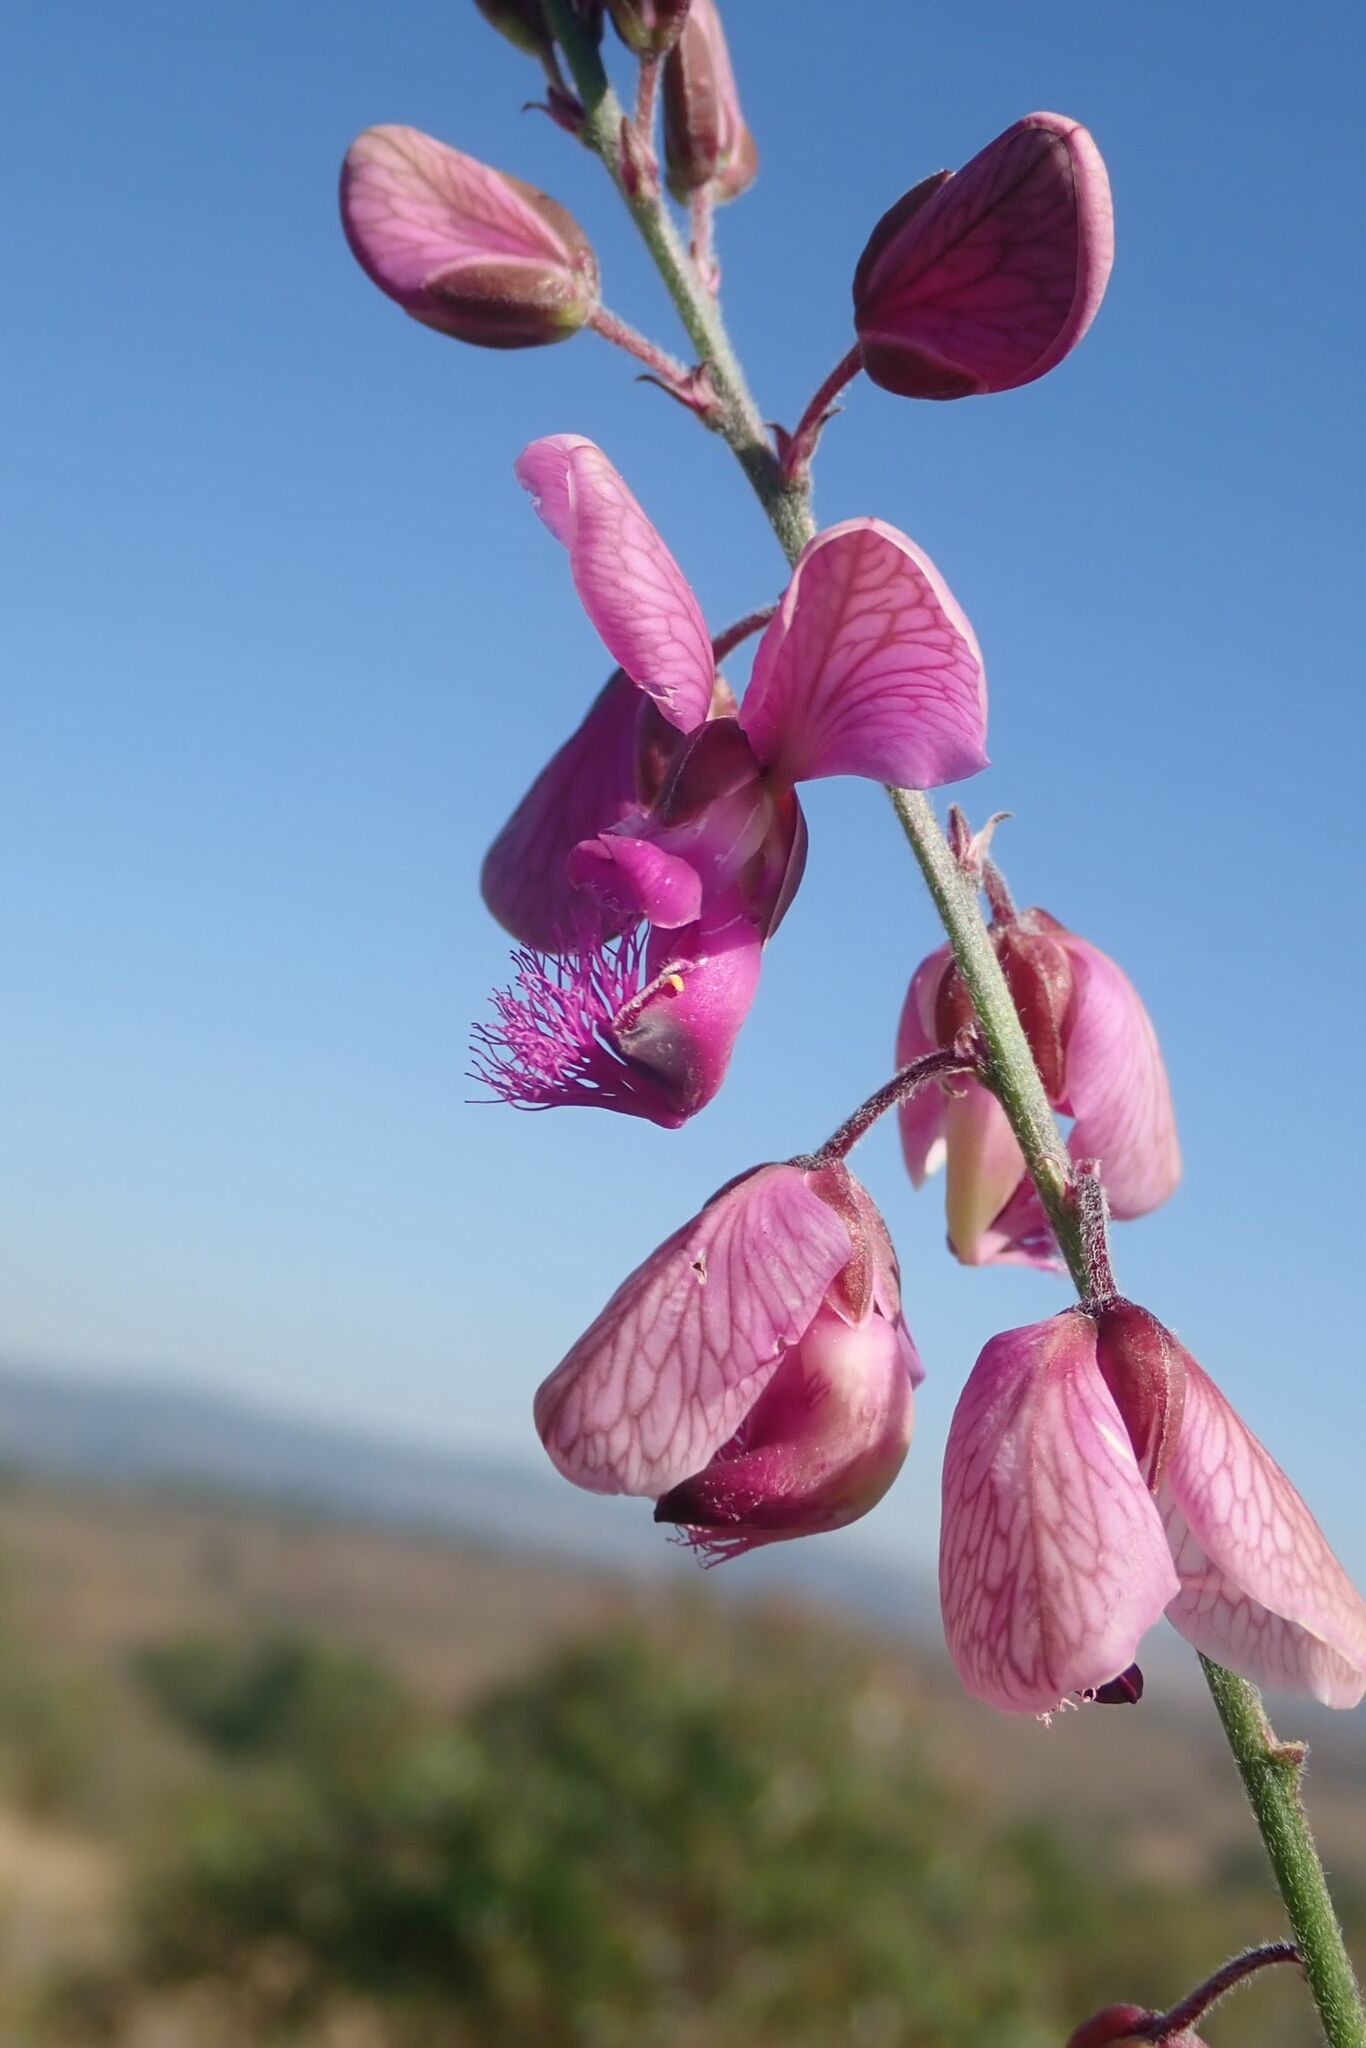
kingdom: Plantae
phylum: Tracheophyta
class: Magnoliopsida
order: Fabales
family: Polygalaceae
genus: Polygala
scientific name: Polygala virgata
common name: Milkwort
